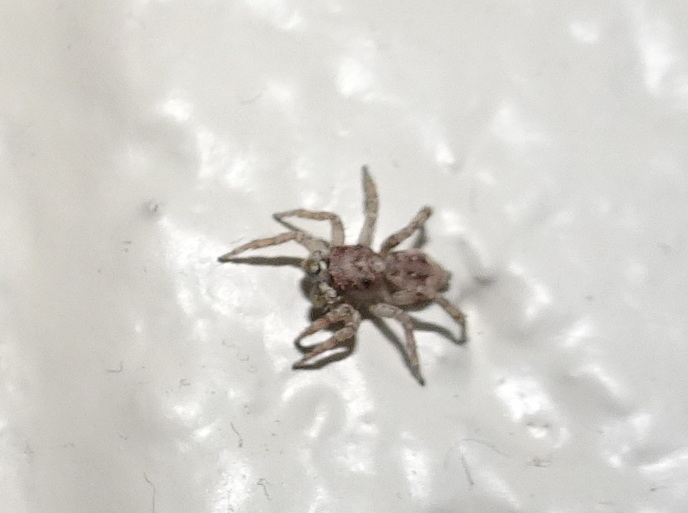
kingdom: Animalia
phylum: Arthropoda
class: Arachnida
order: Araneae
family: Salticidae
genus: Attulus
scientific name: Attulus fasciger
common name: Asiatic wall jumping spider
